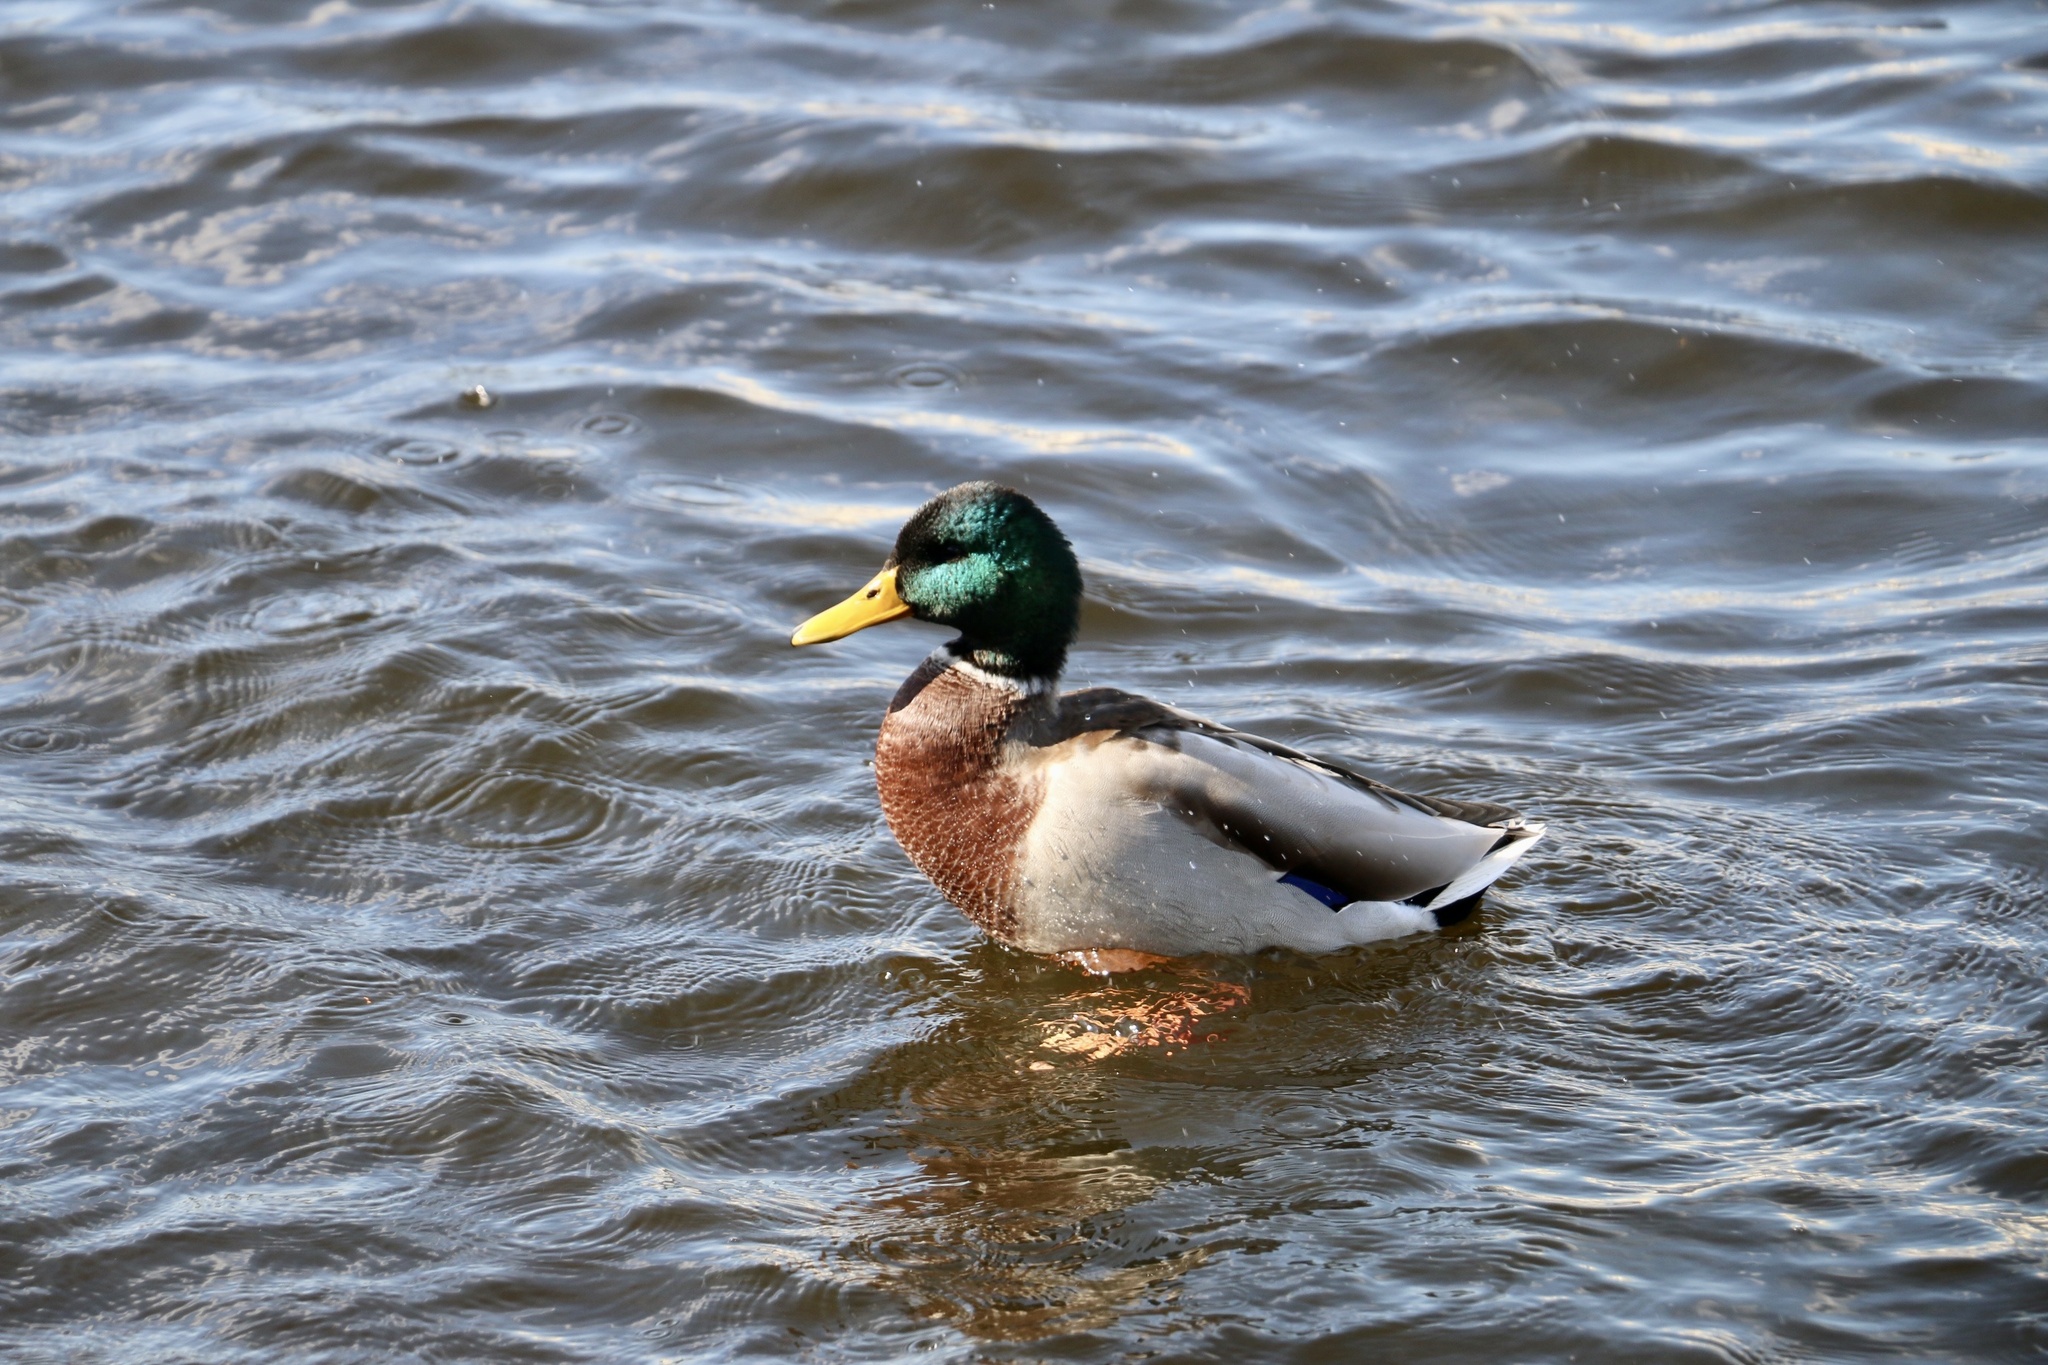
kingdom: Animalia
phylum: Chordata
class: Aves
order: Anseriformes
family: Anatidae
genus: Anas
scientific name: Anas platyrhynchos
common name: Mallard
